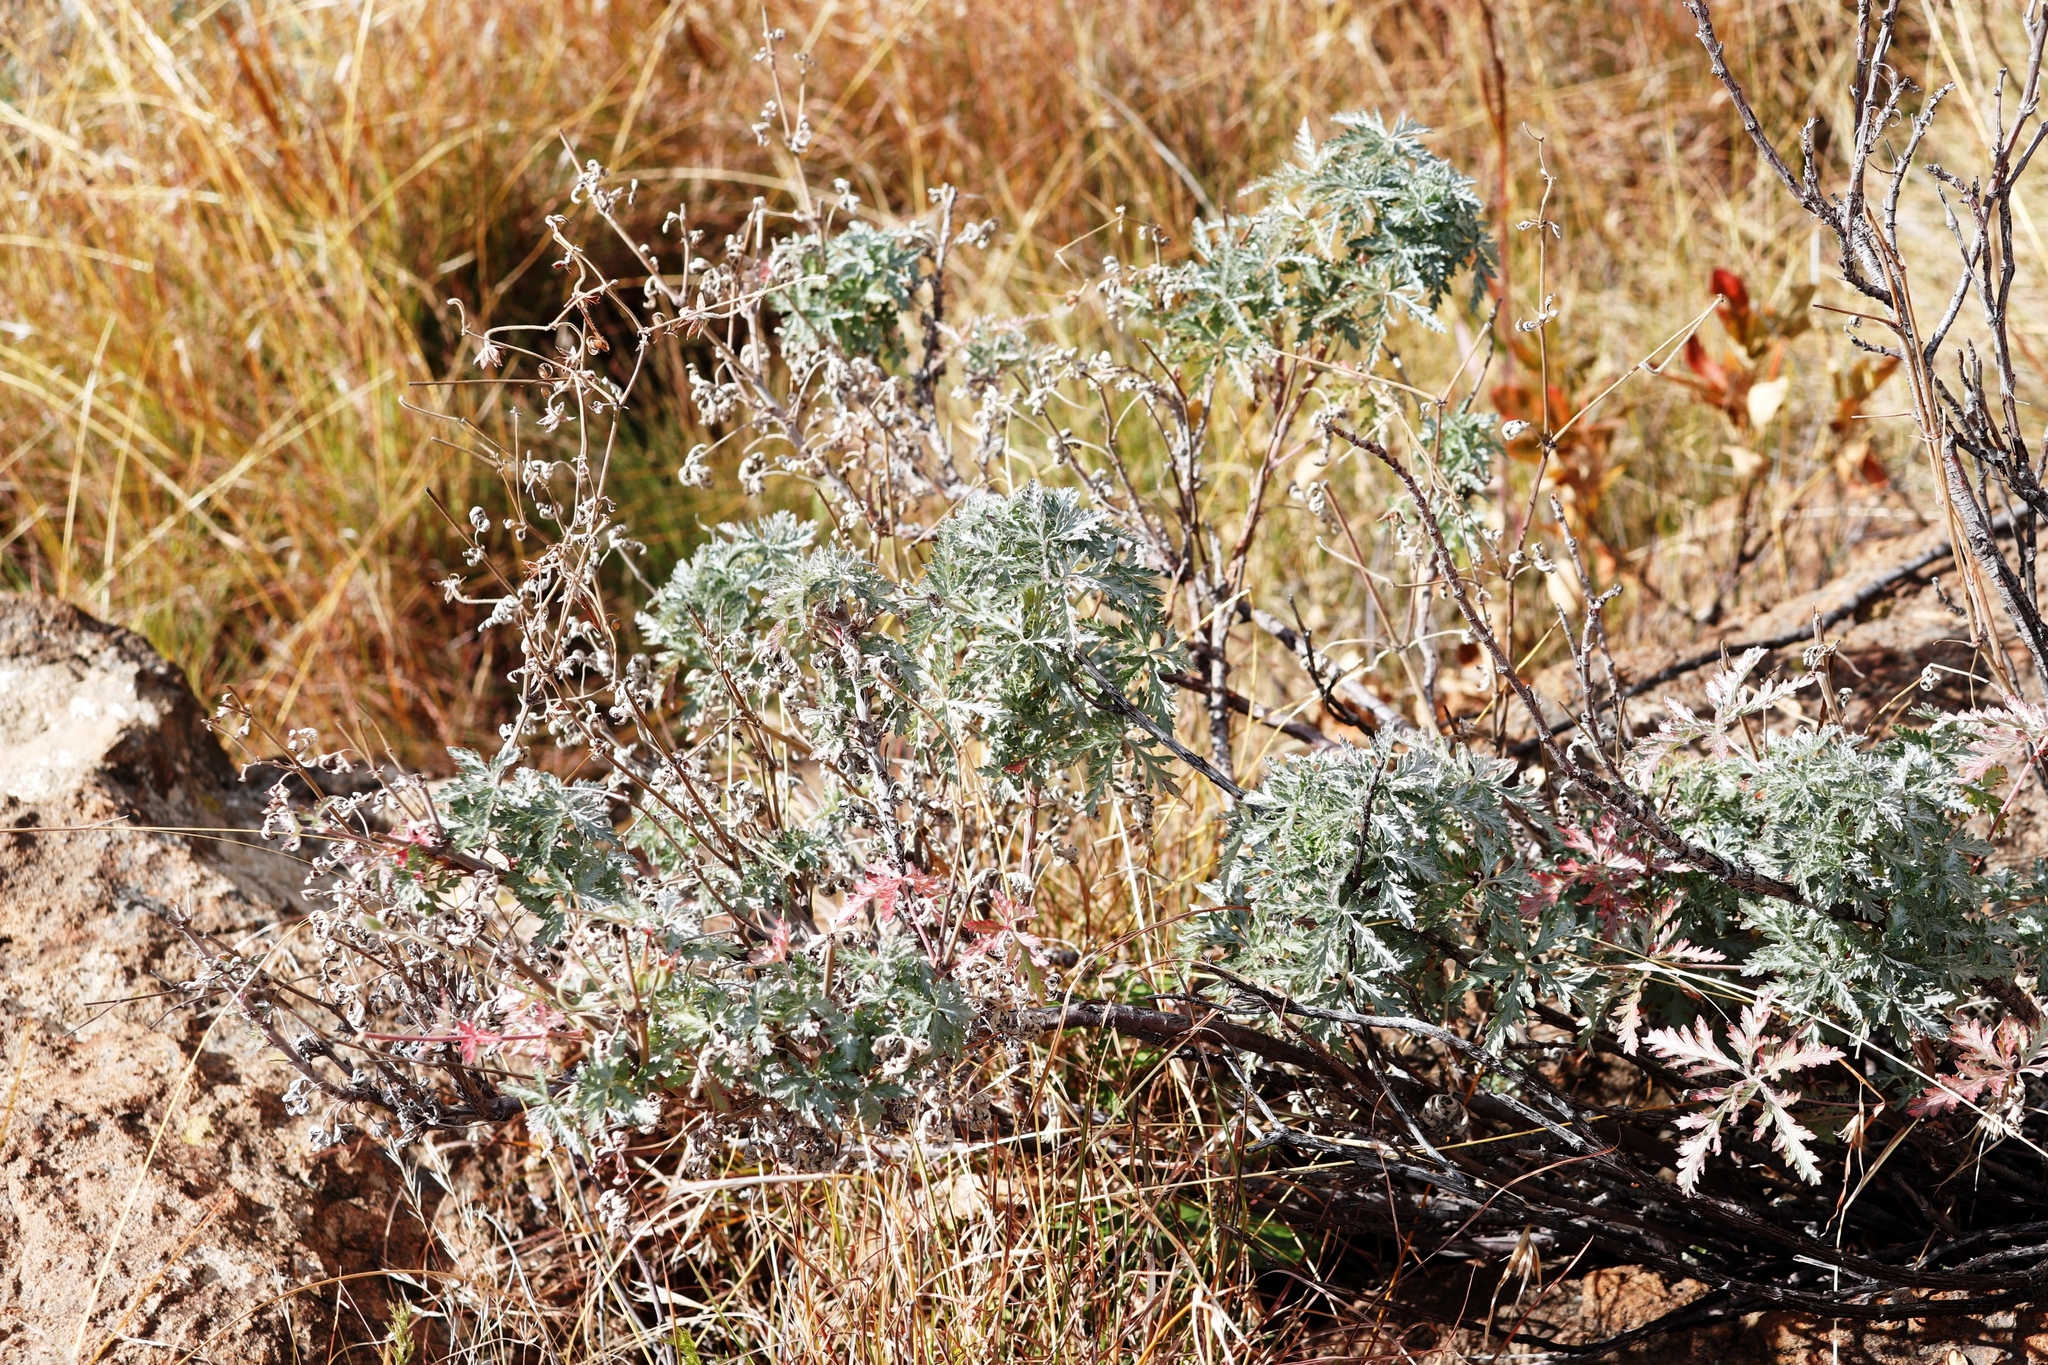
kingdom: Plantae
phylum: Tracheophyta
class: Magnoliopsida
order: Geraniales
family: Geraniaceae
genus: Geranium
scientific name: Geranium drakensbergense
